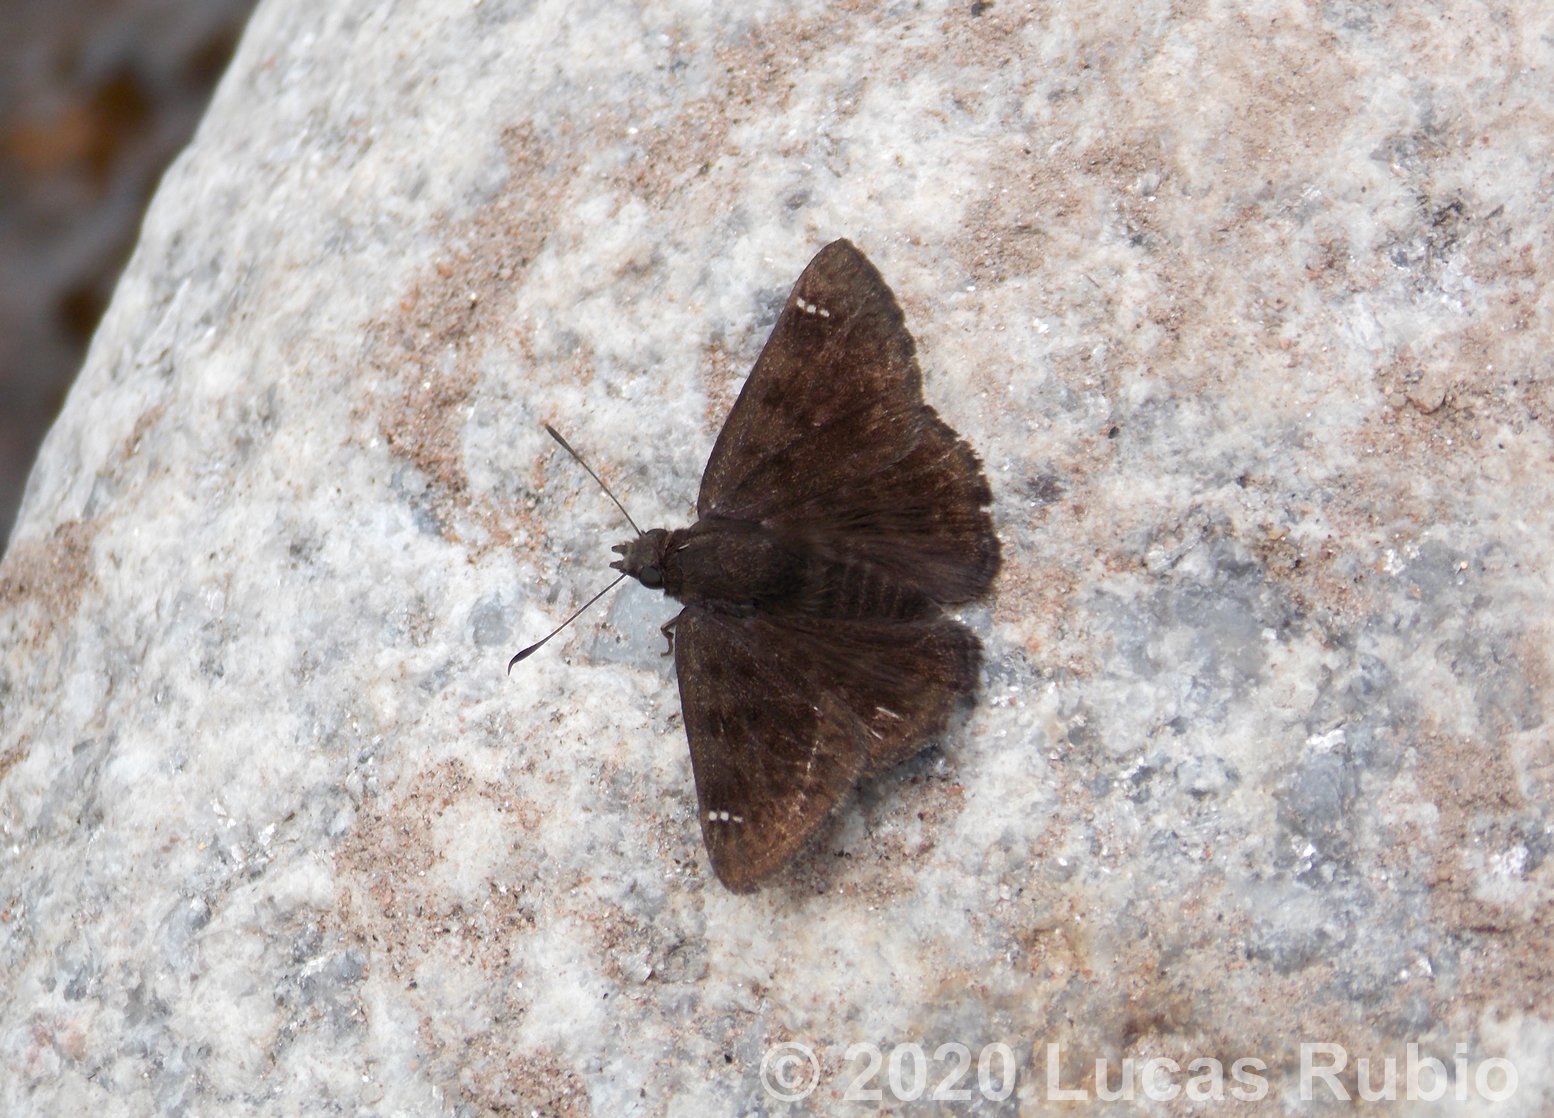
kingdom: Animalia
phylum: Arthropoda
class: Insecta
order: Lepidoptera
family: Hesperiidae
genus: Nisoniades
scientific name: Nisoniades haywardi
